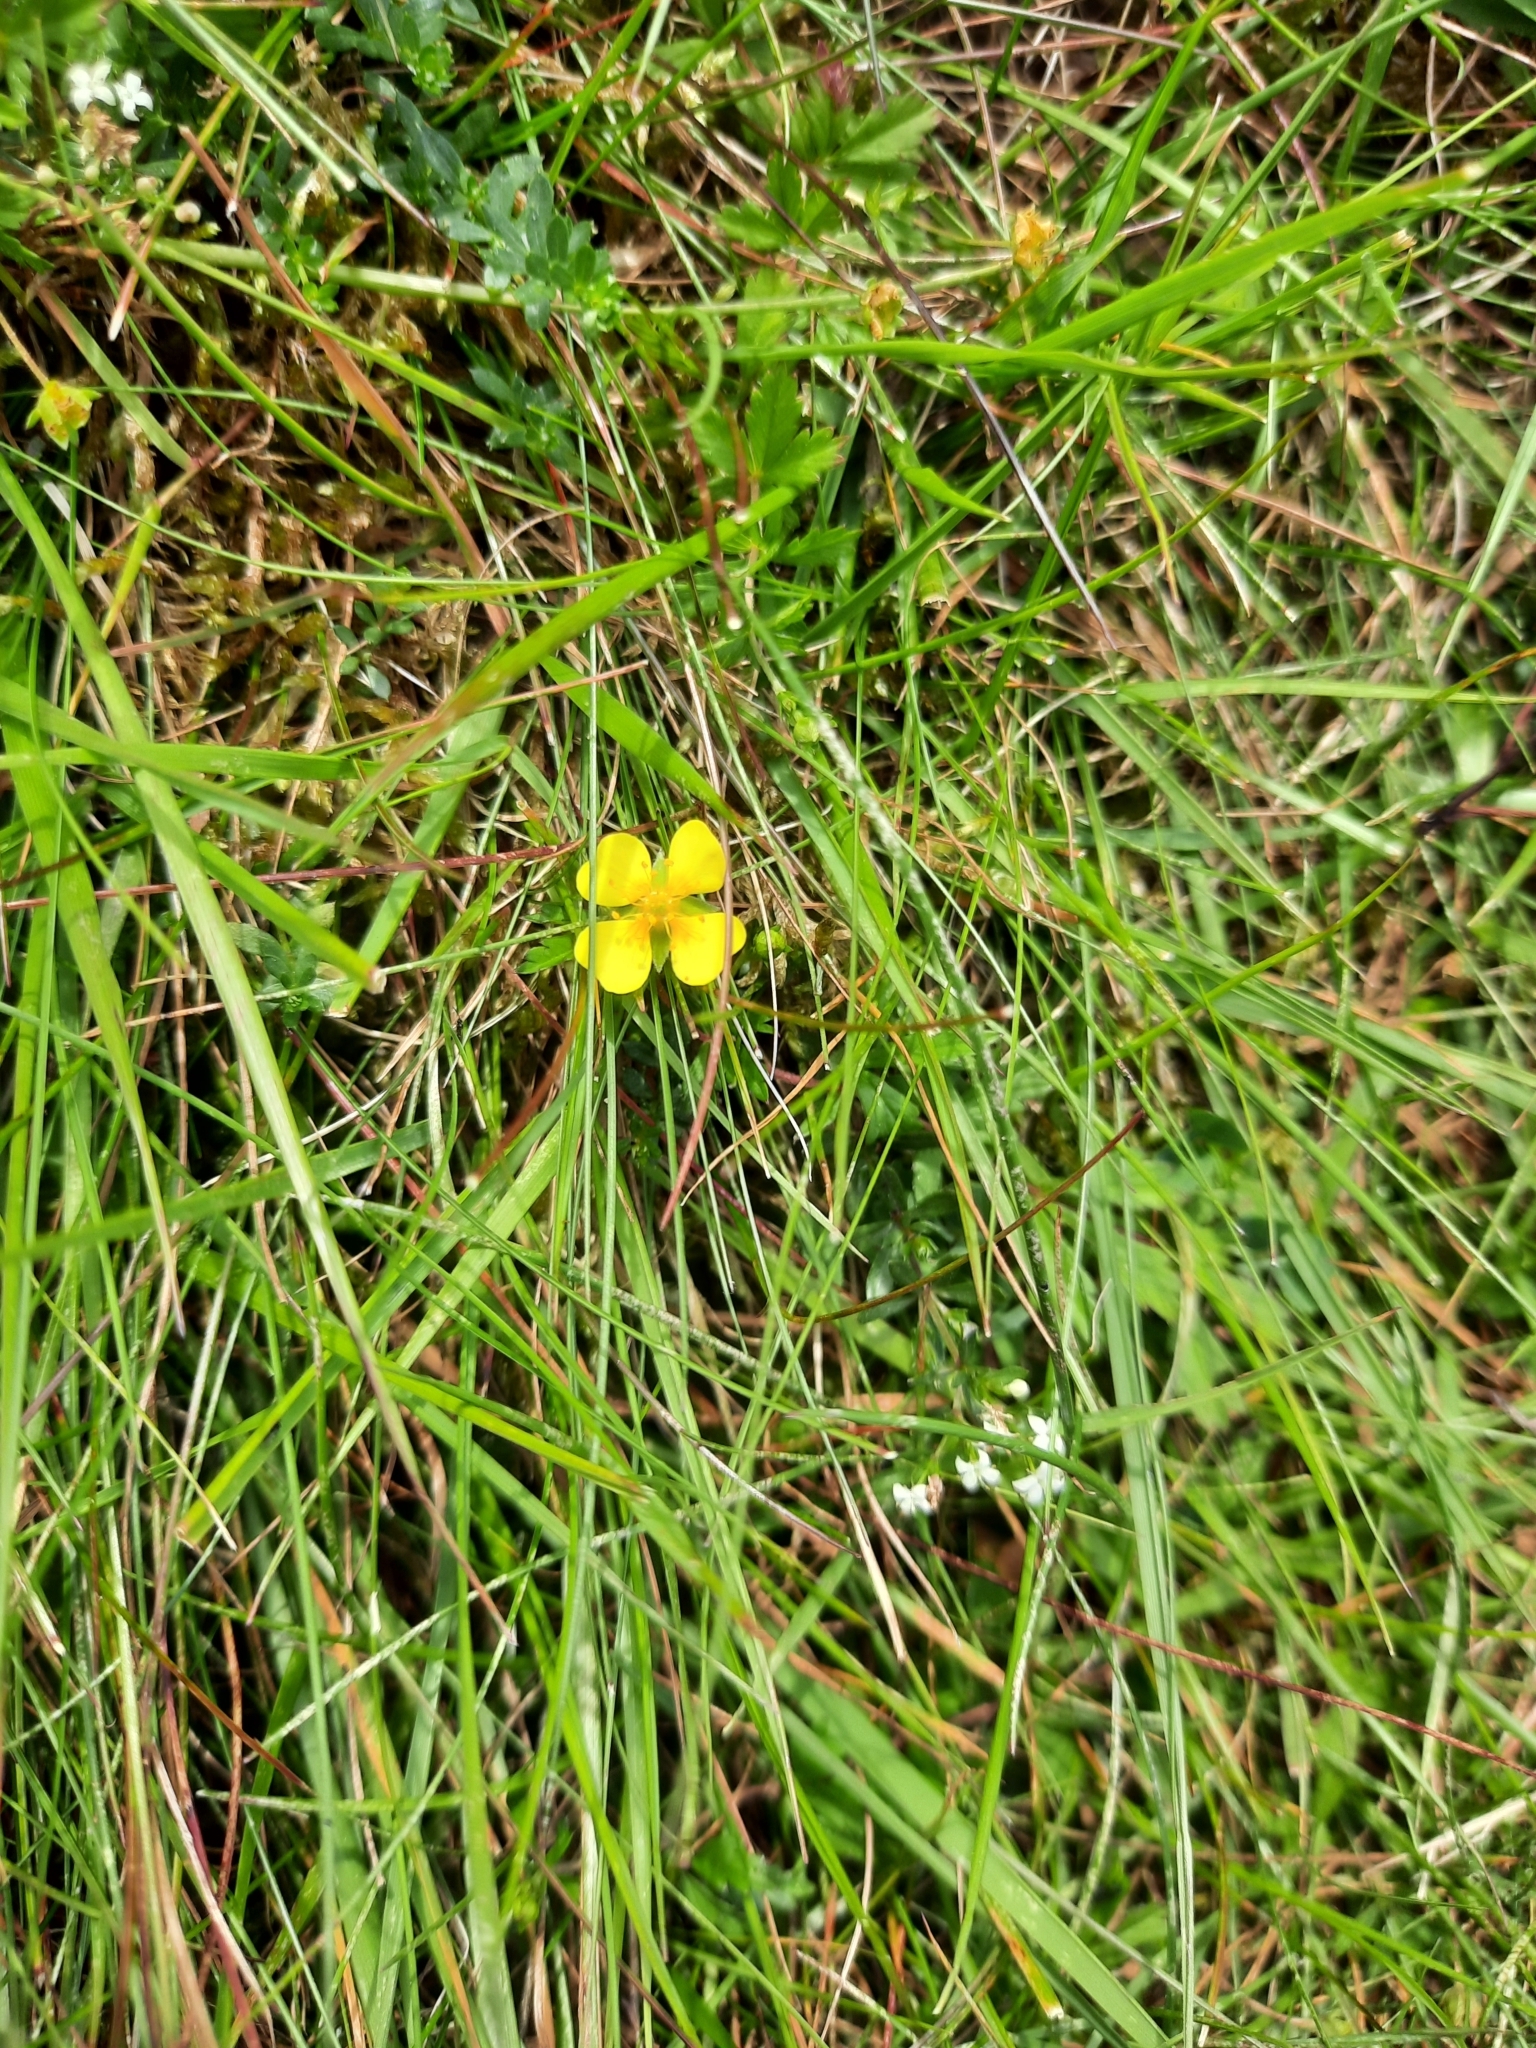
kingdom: Plantae
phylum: Tracheophyta
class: Magnoliopsida
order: Rosales
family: Rosaceae
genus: Potentilla
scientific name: Potentilla erecta
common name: Tormentil
